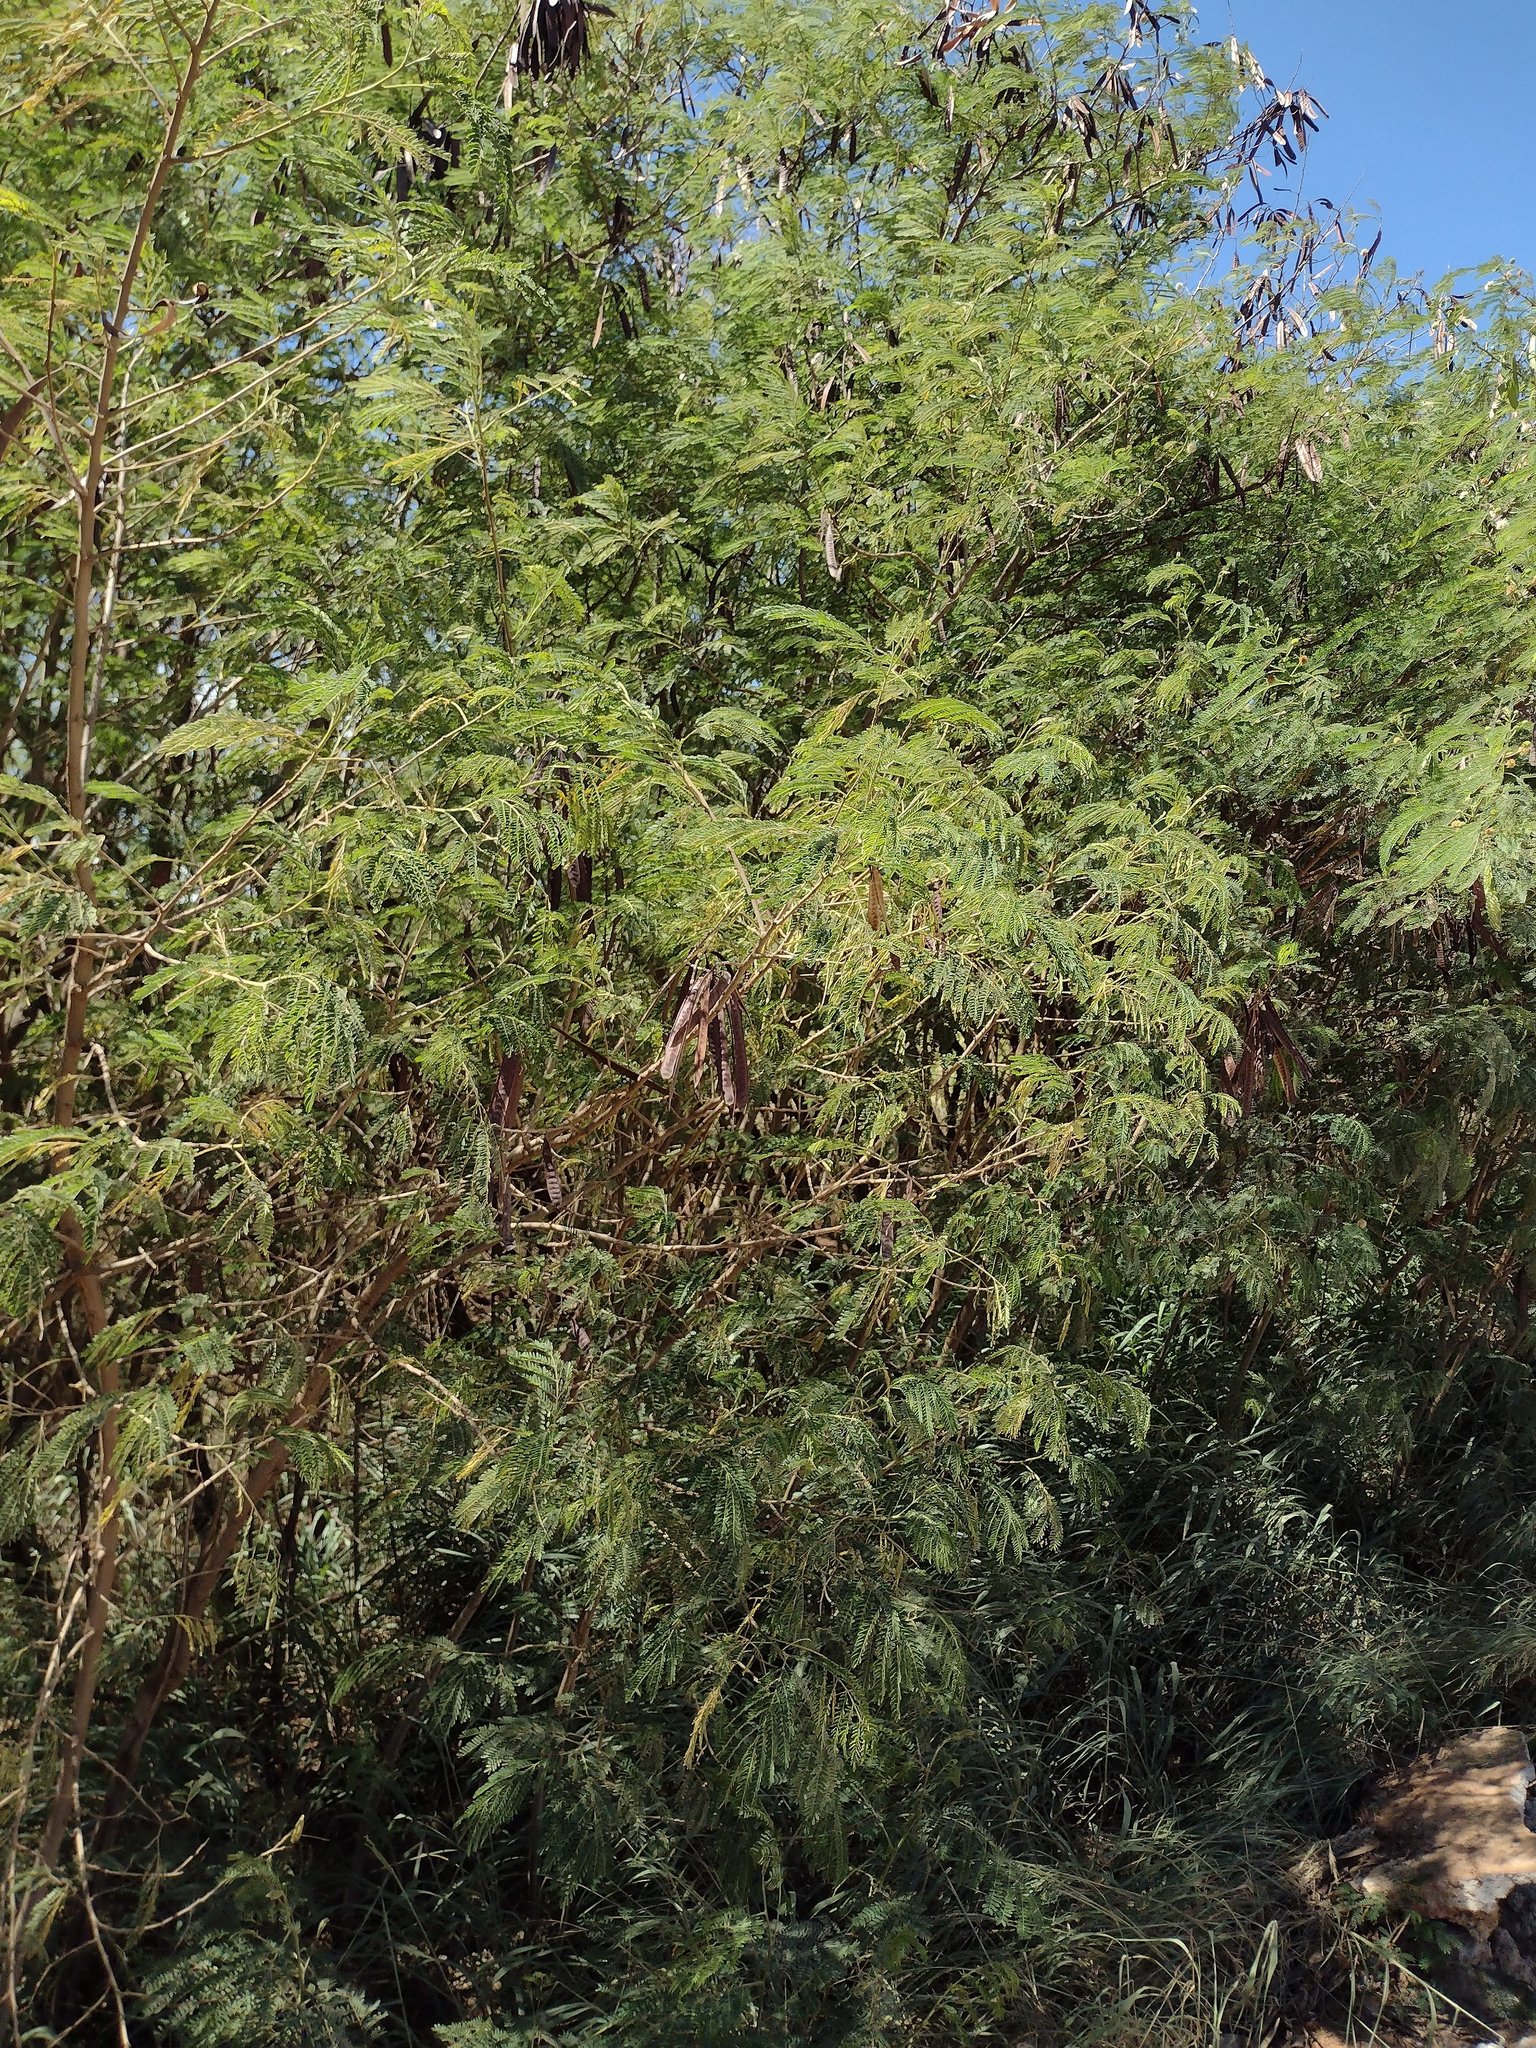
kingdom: Plantae
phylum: Tracheophyta
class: Magnoliopsida
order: Fabales
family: Fabaceae
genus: Leucaena
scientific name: Leucaena leucocephala
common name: White leadtree
